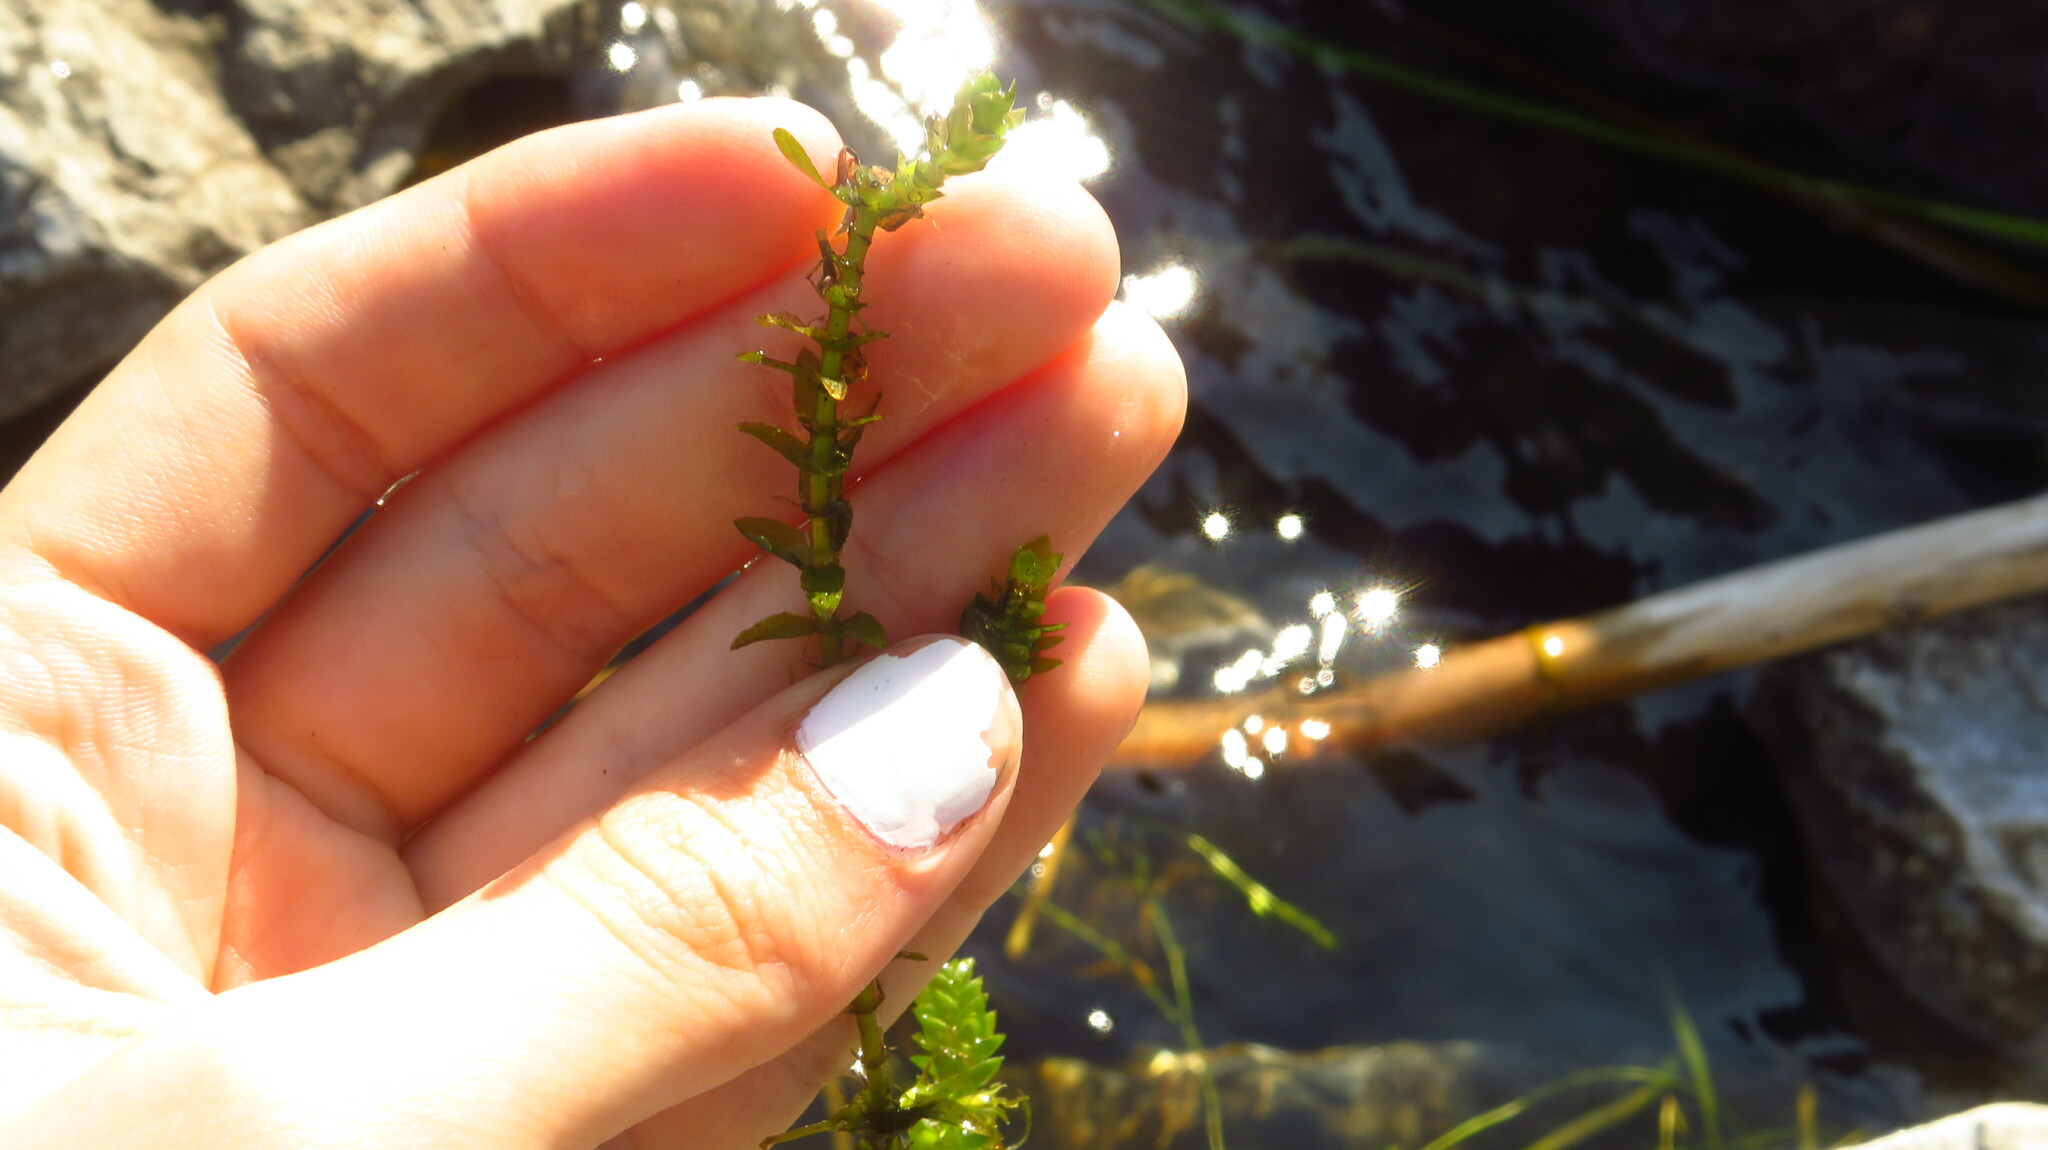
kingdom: Plantae
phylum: Tracheophyta
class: Liliopsida
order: Alismatales
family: Hydrocharitaceae
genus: Elodea
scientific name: Elodea canadensis
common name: Canadian waterweed
